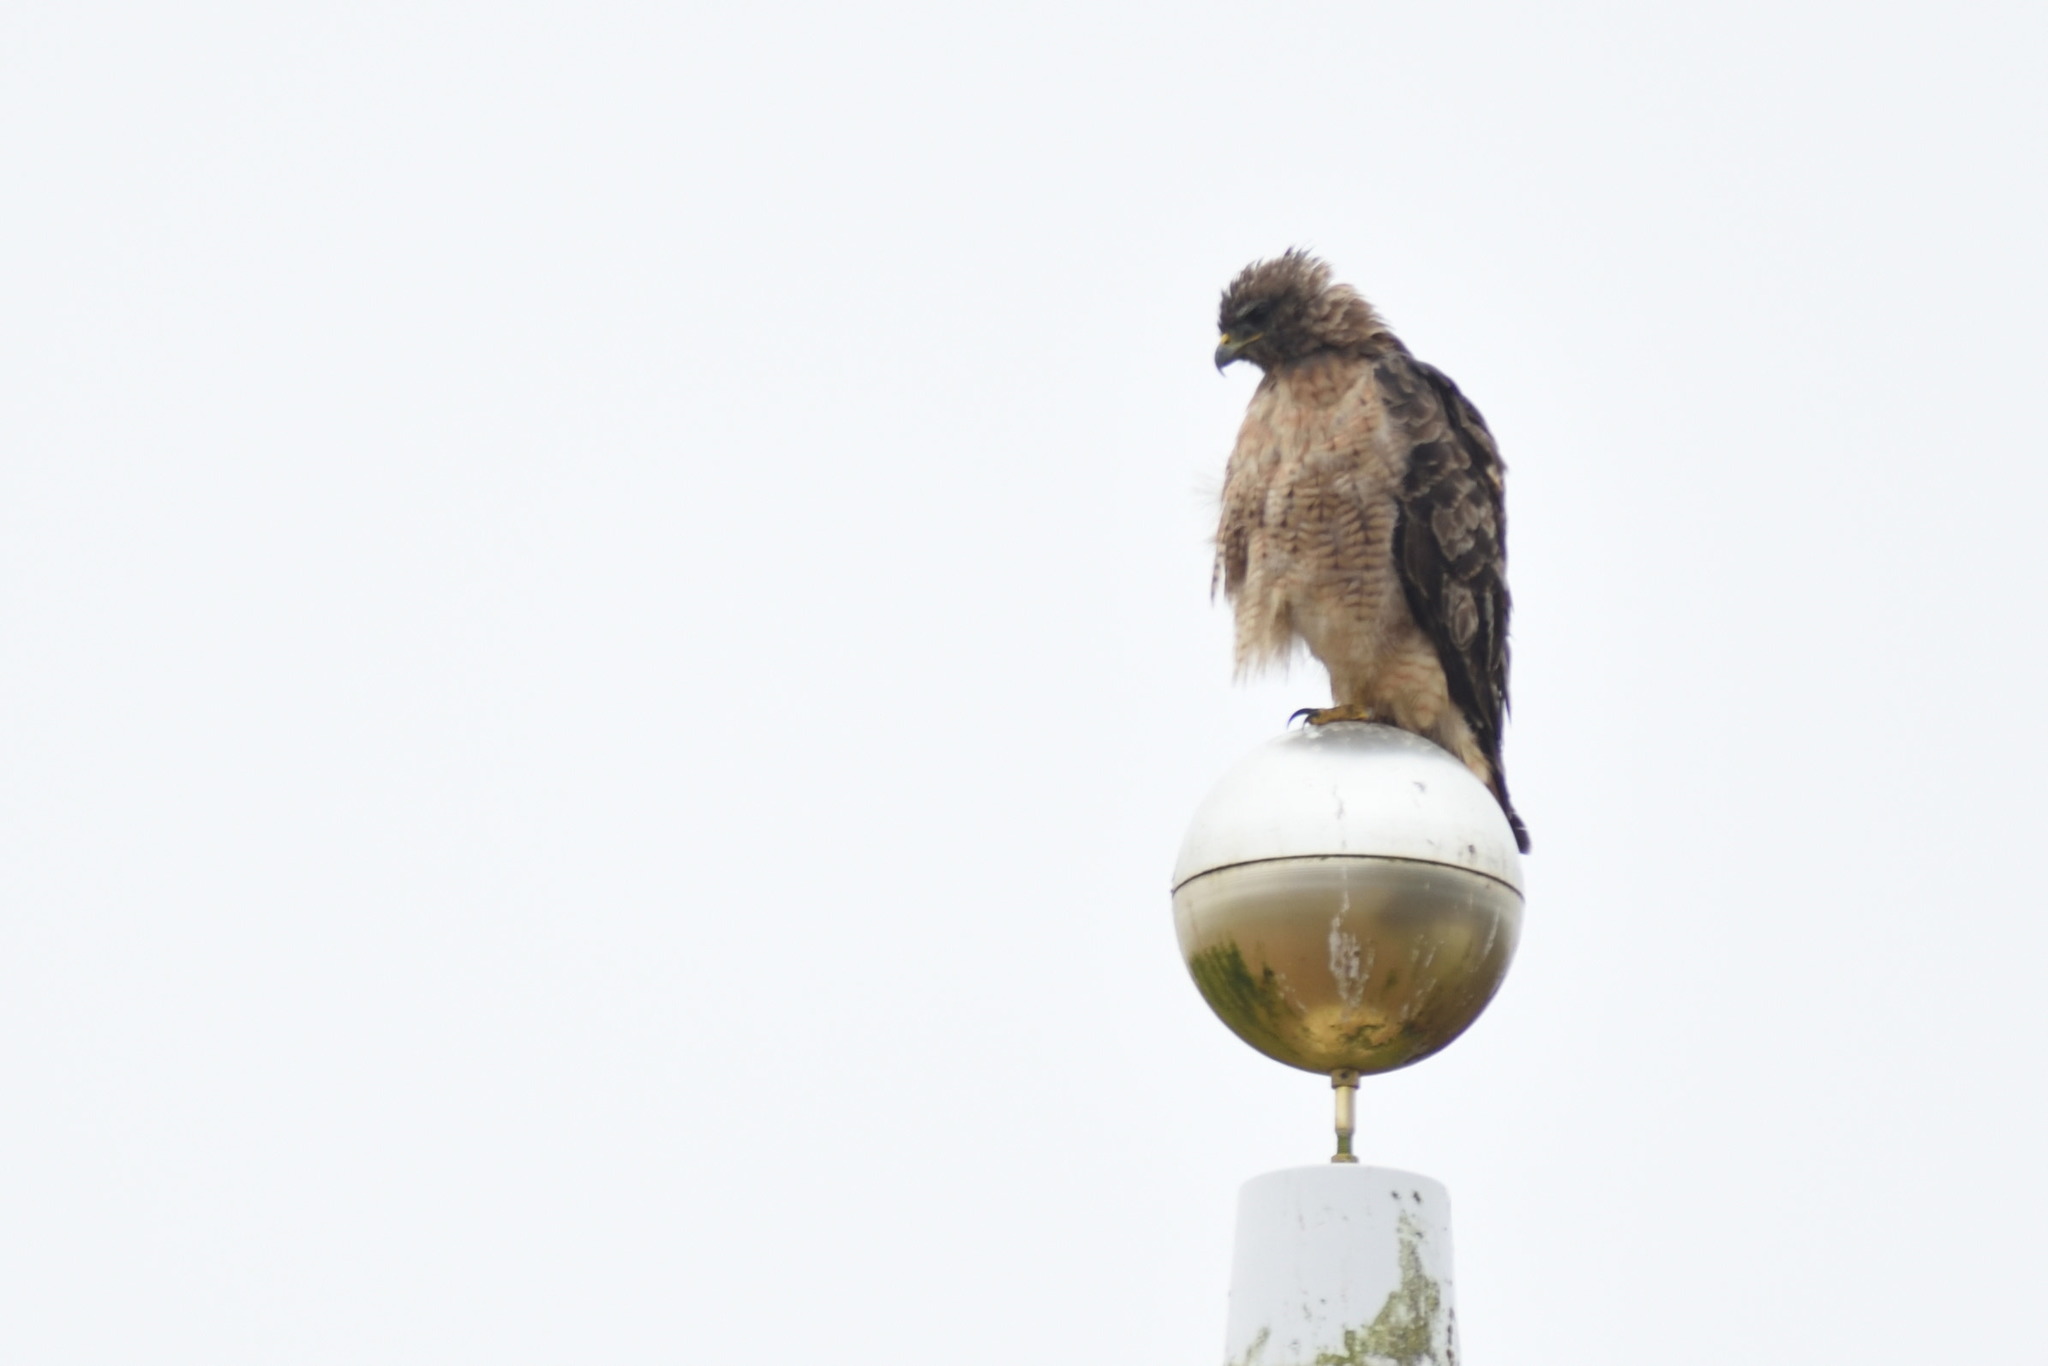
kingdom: Animalia
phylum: Chordata
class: Aves
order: Accipitriformes
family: Accipitridae
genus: Buteo
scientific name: Buteo jamaicensis
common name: Red-tailed hawk
